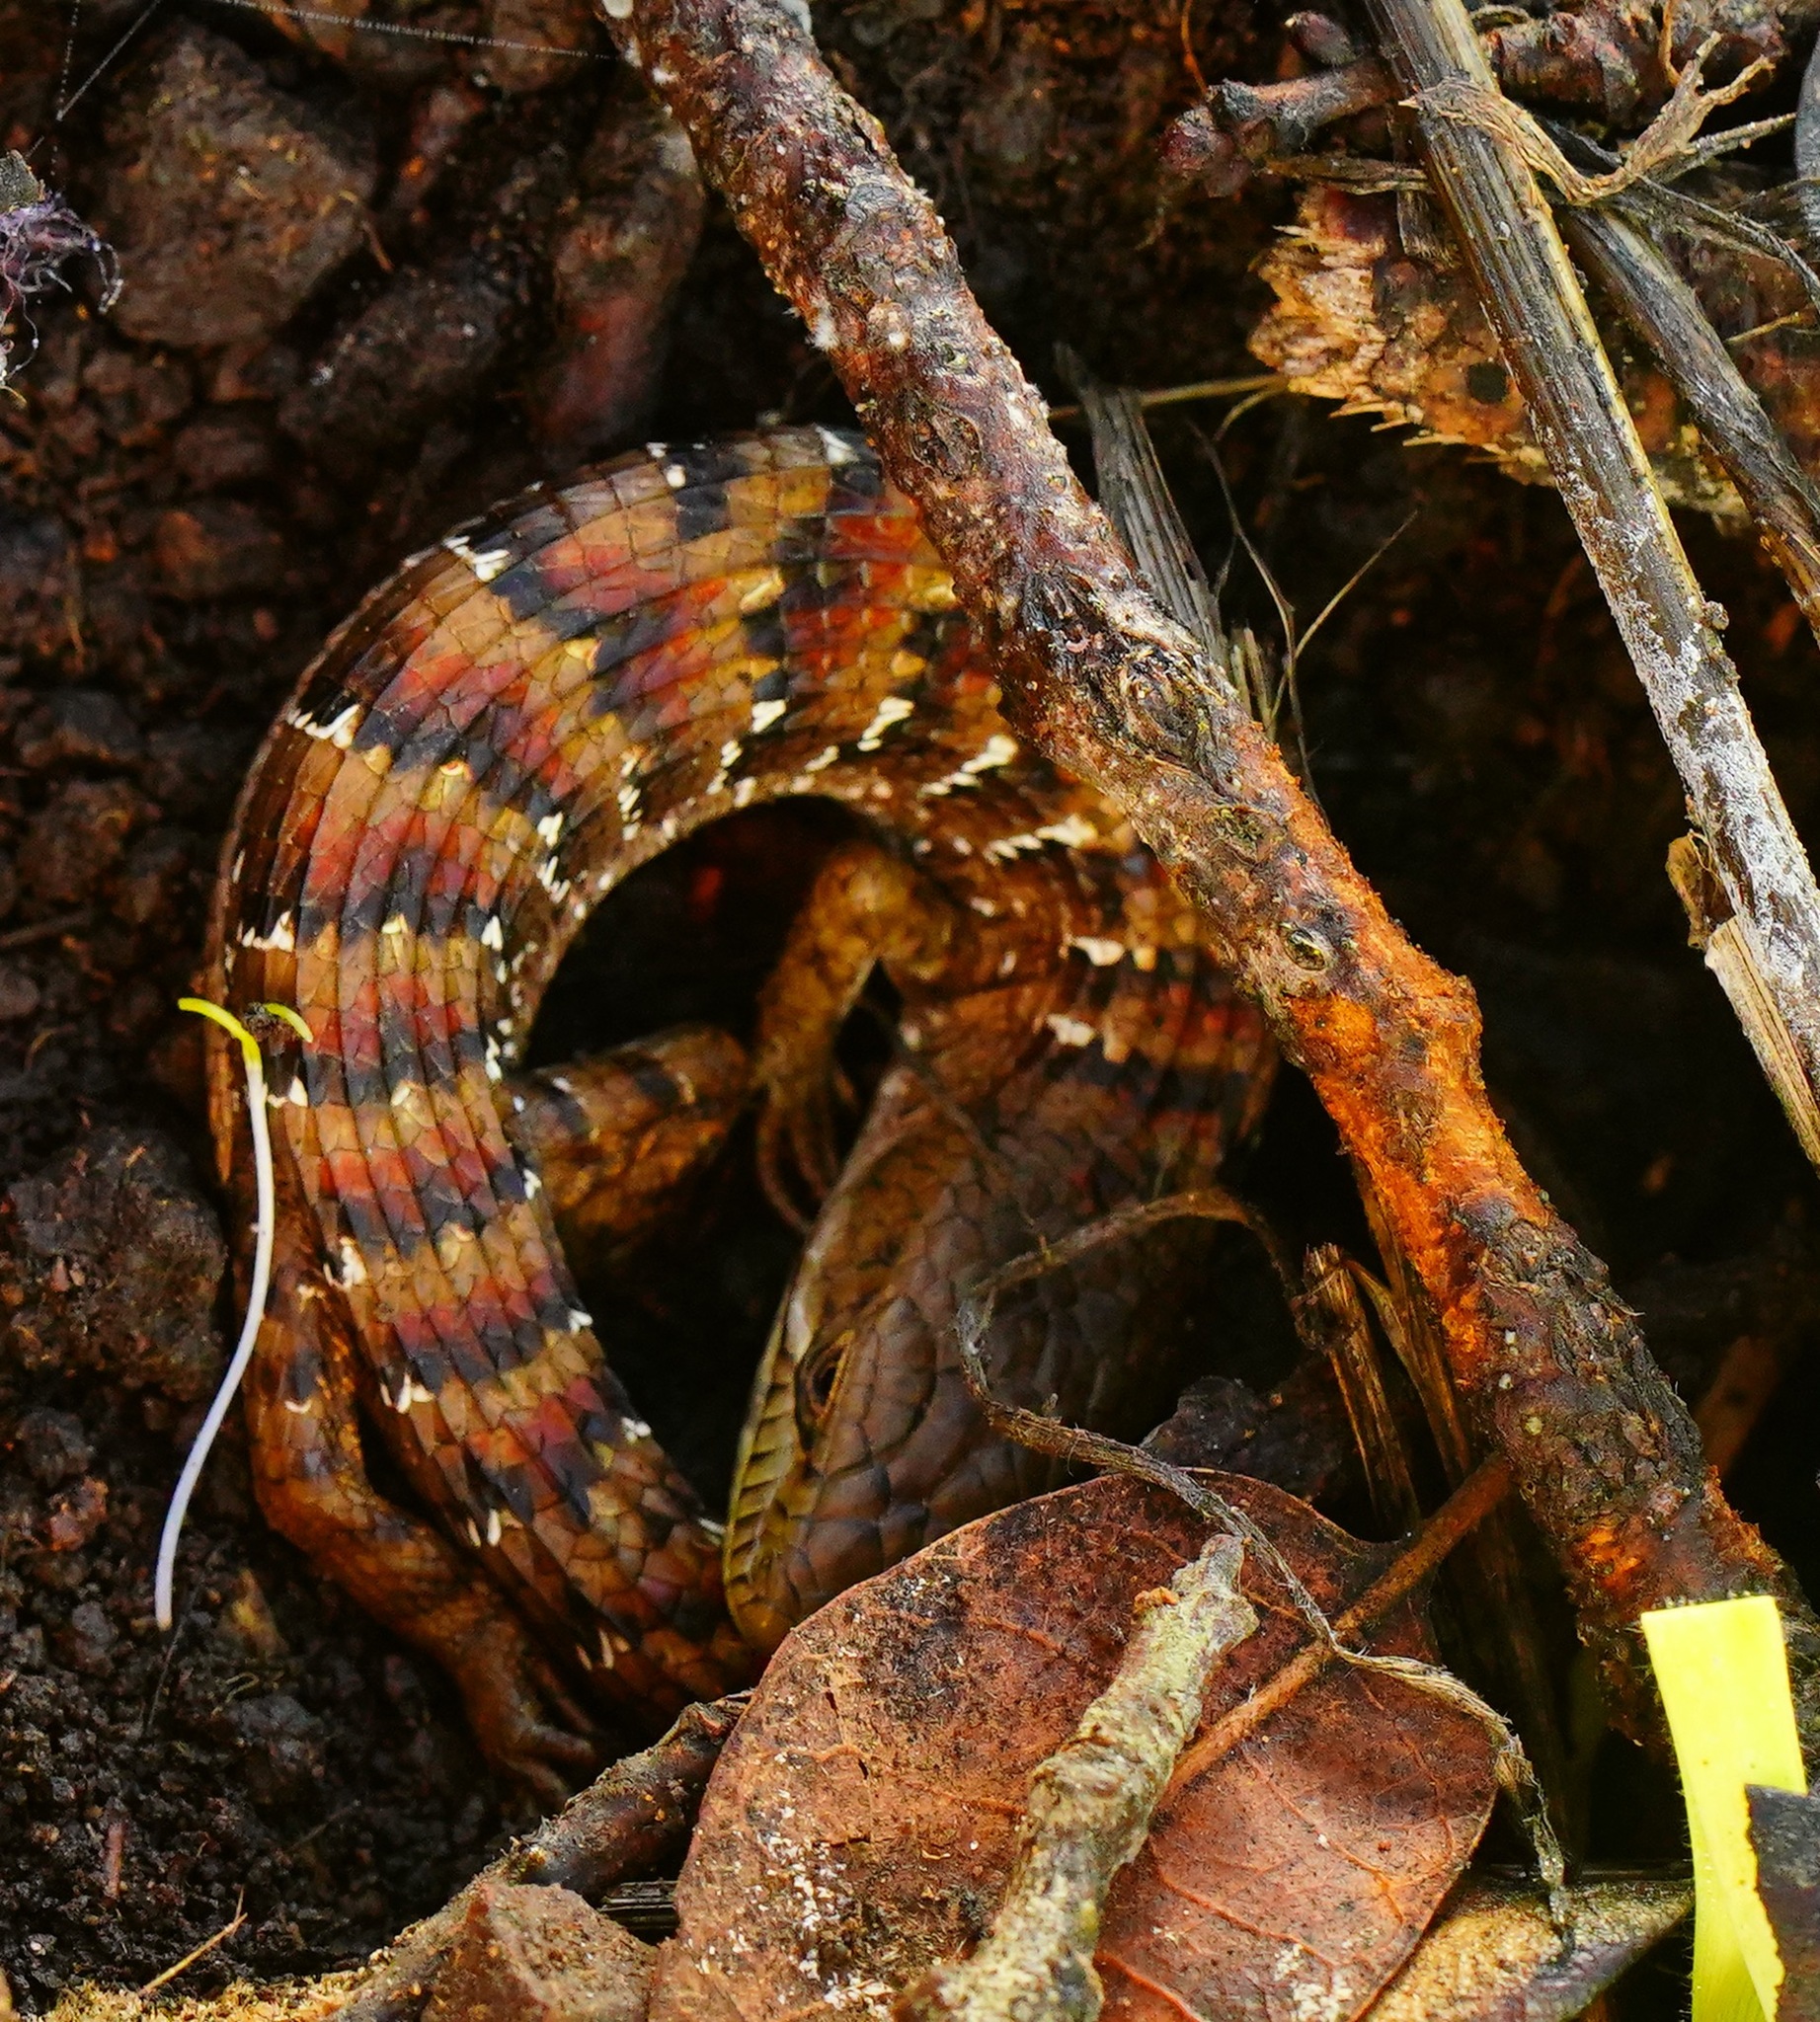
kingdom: Animalia
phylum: Chordata
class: Squamata
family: Anguidae
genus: Elgaria
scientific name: Elgaria multicarinata
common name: Southern alligator lizard
